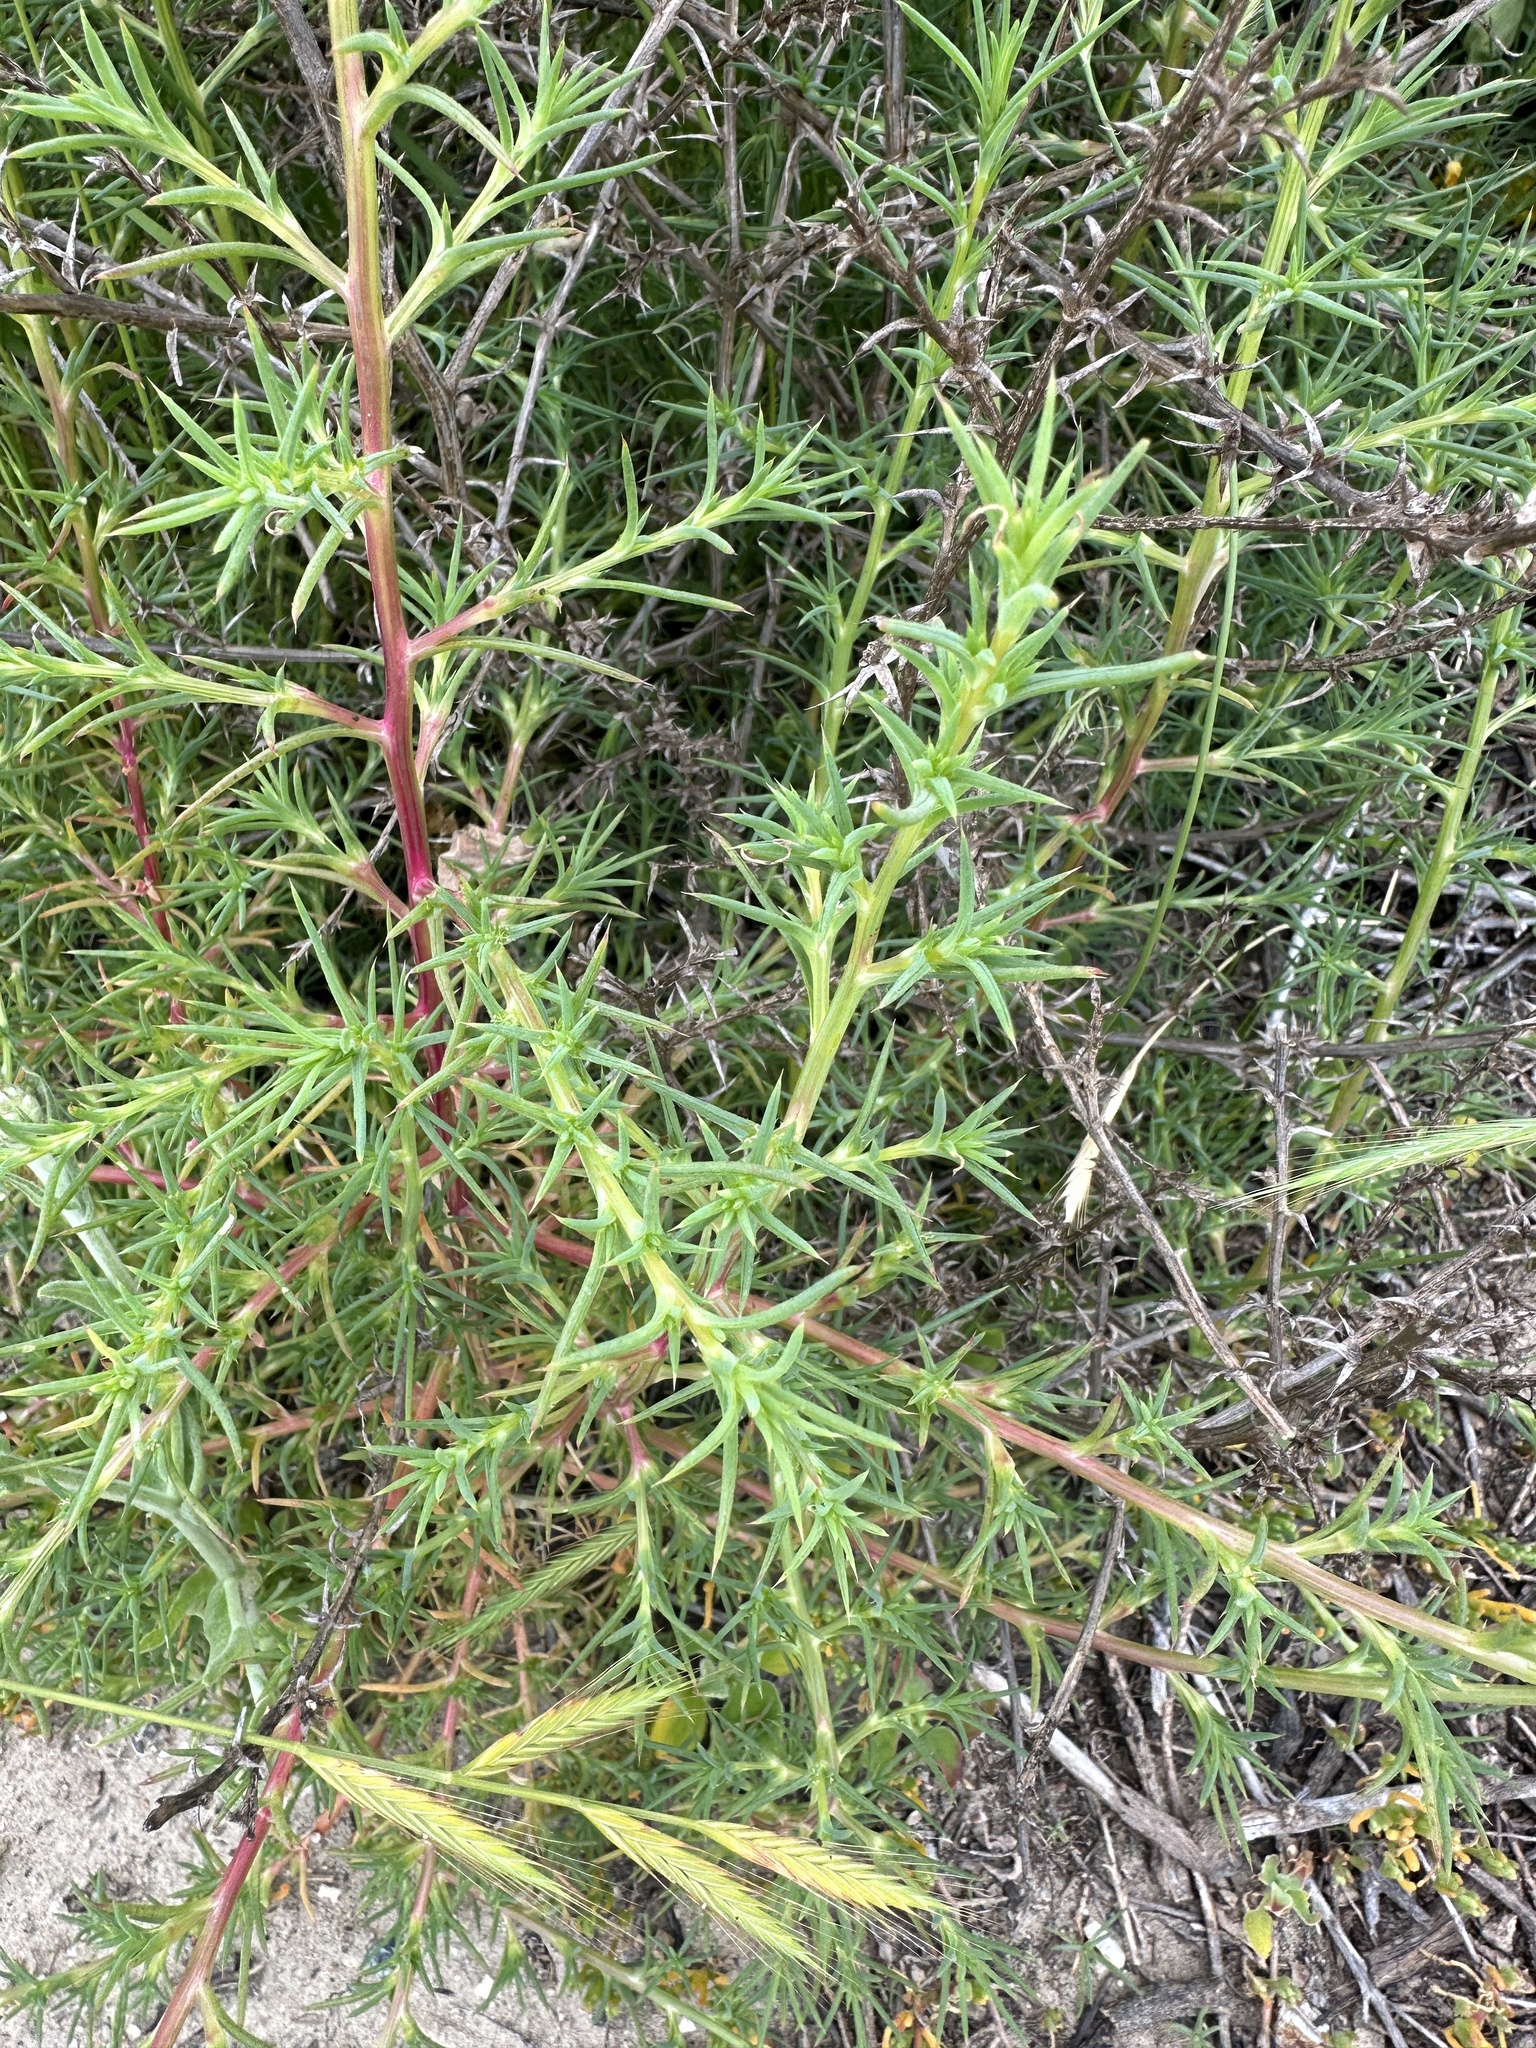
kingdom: Plantae
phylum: Tracheophyta
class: Magnoliopsida
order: Caryophyllales
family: Amaranthaceae
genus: Salsola
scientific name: Salsola australis
